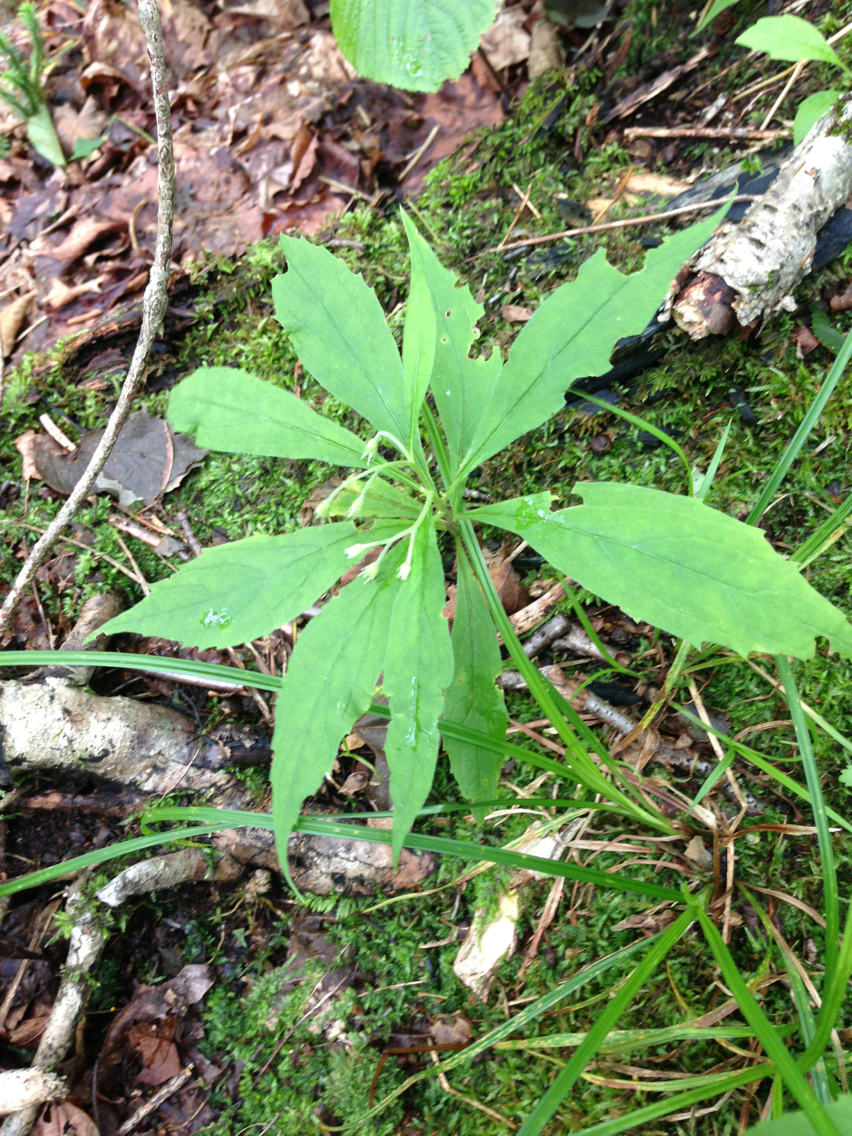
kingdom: Plantae
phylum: Tracheophyta
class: Magnoliopsida
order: Asterales
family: Asteraceae
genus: Oclemena
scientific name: Oclemena acuminata
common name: Mountain aster
